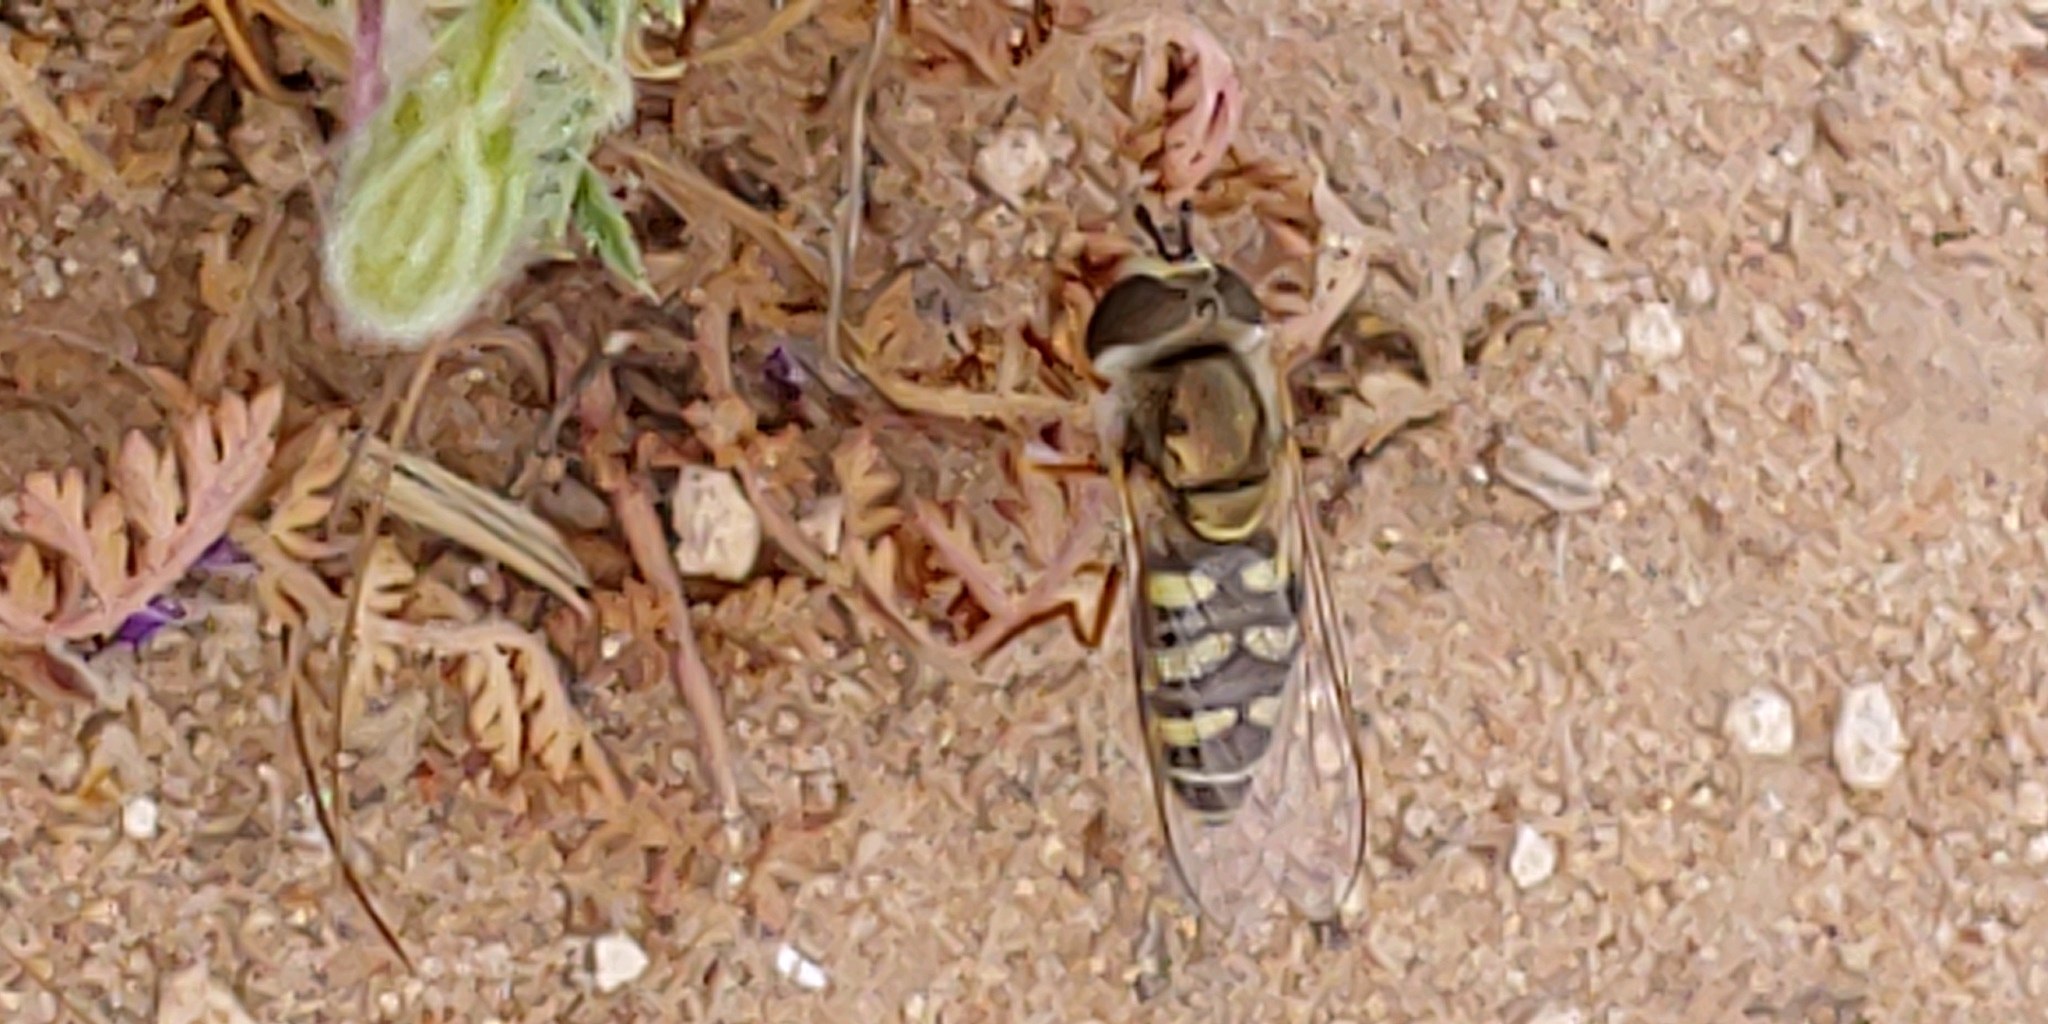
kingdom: Animalia
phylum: Arthropoda
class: Insecta
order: Diptera
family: Syrphidae
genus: Eupeodes
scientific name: Eupeodes volucris
